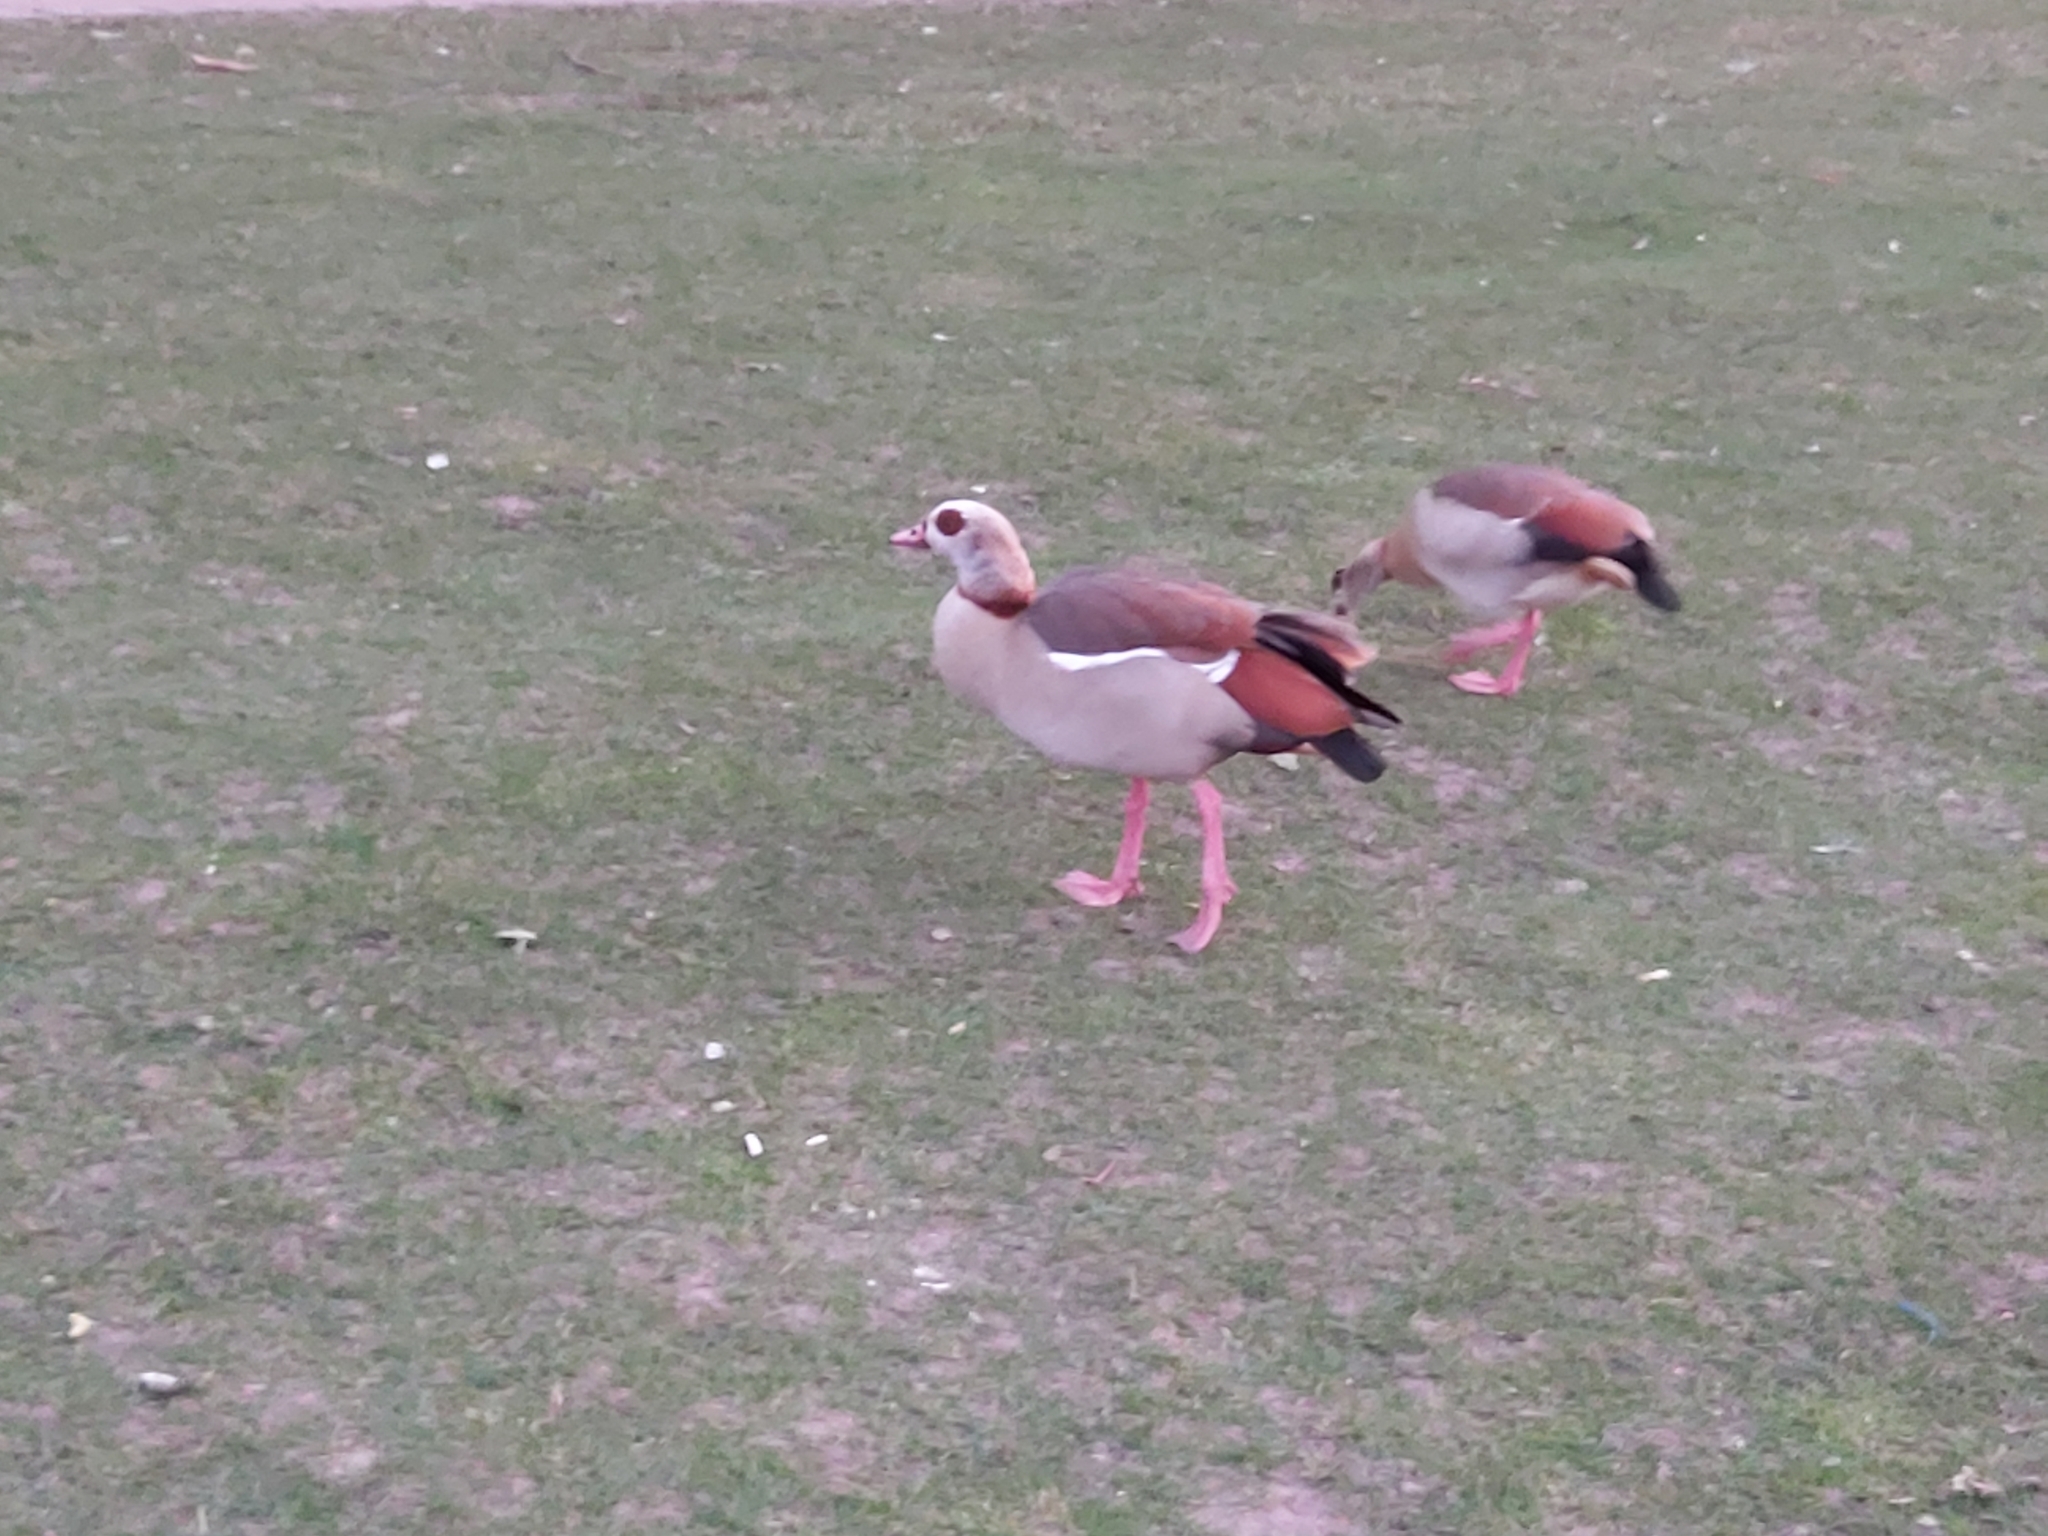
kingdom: Animalia
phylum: Chordata
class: Aves
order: Anseriformes
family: Anatidae
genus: Alopochen
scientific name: Alopochen aegyptiaca
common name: Egyptian goose
